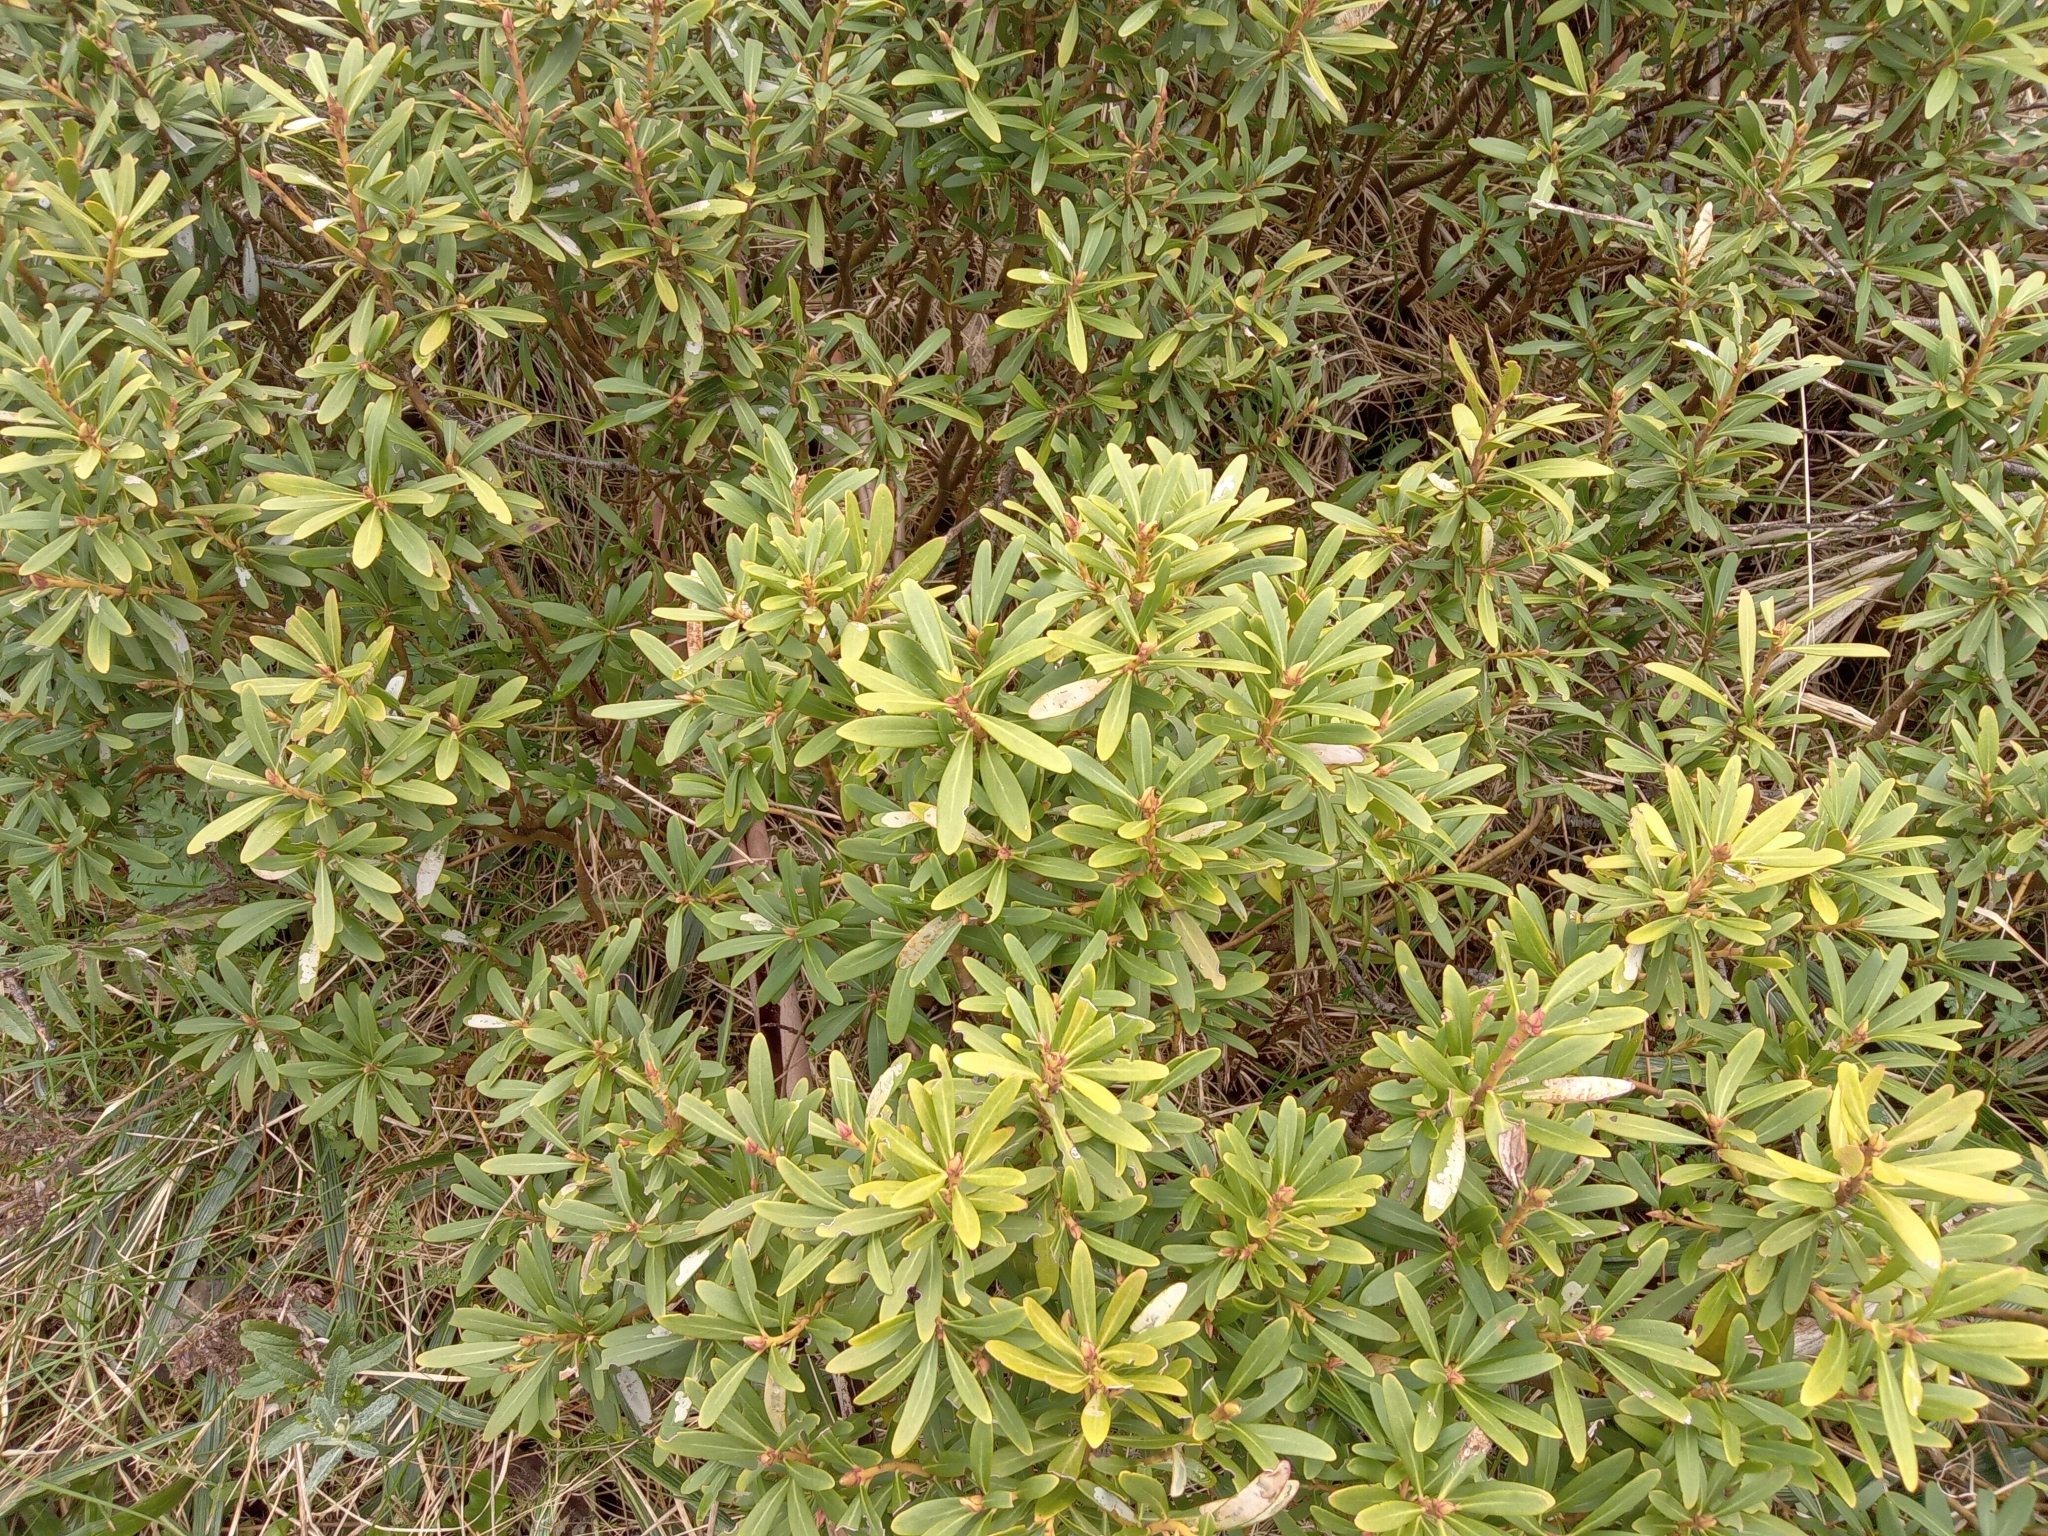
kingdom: Plantae
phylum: Tracheophyta
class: Magnoliopsida
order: Canellales
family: Winteraceae
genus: Drimys
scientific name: Drimys xerophila
